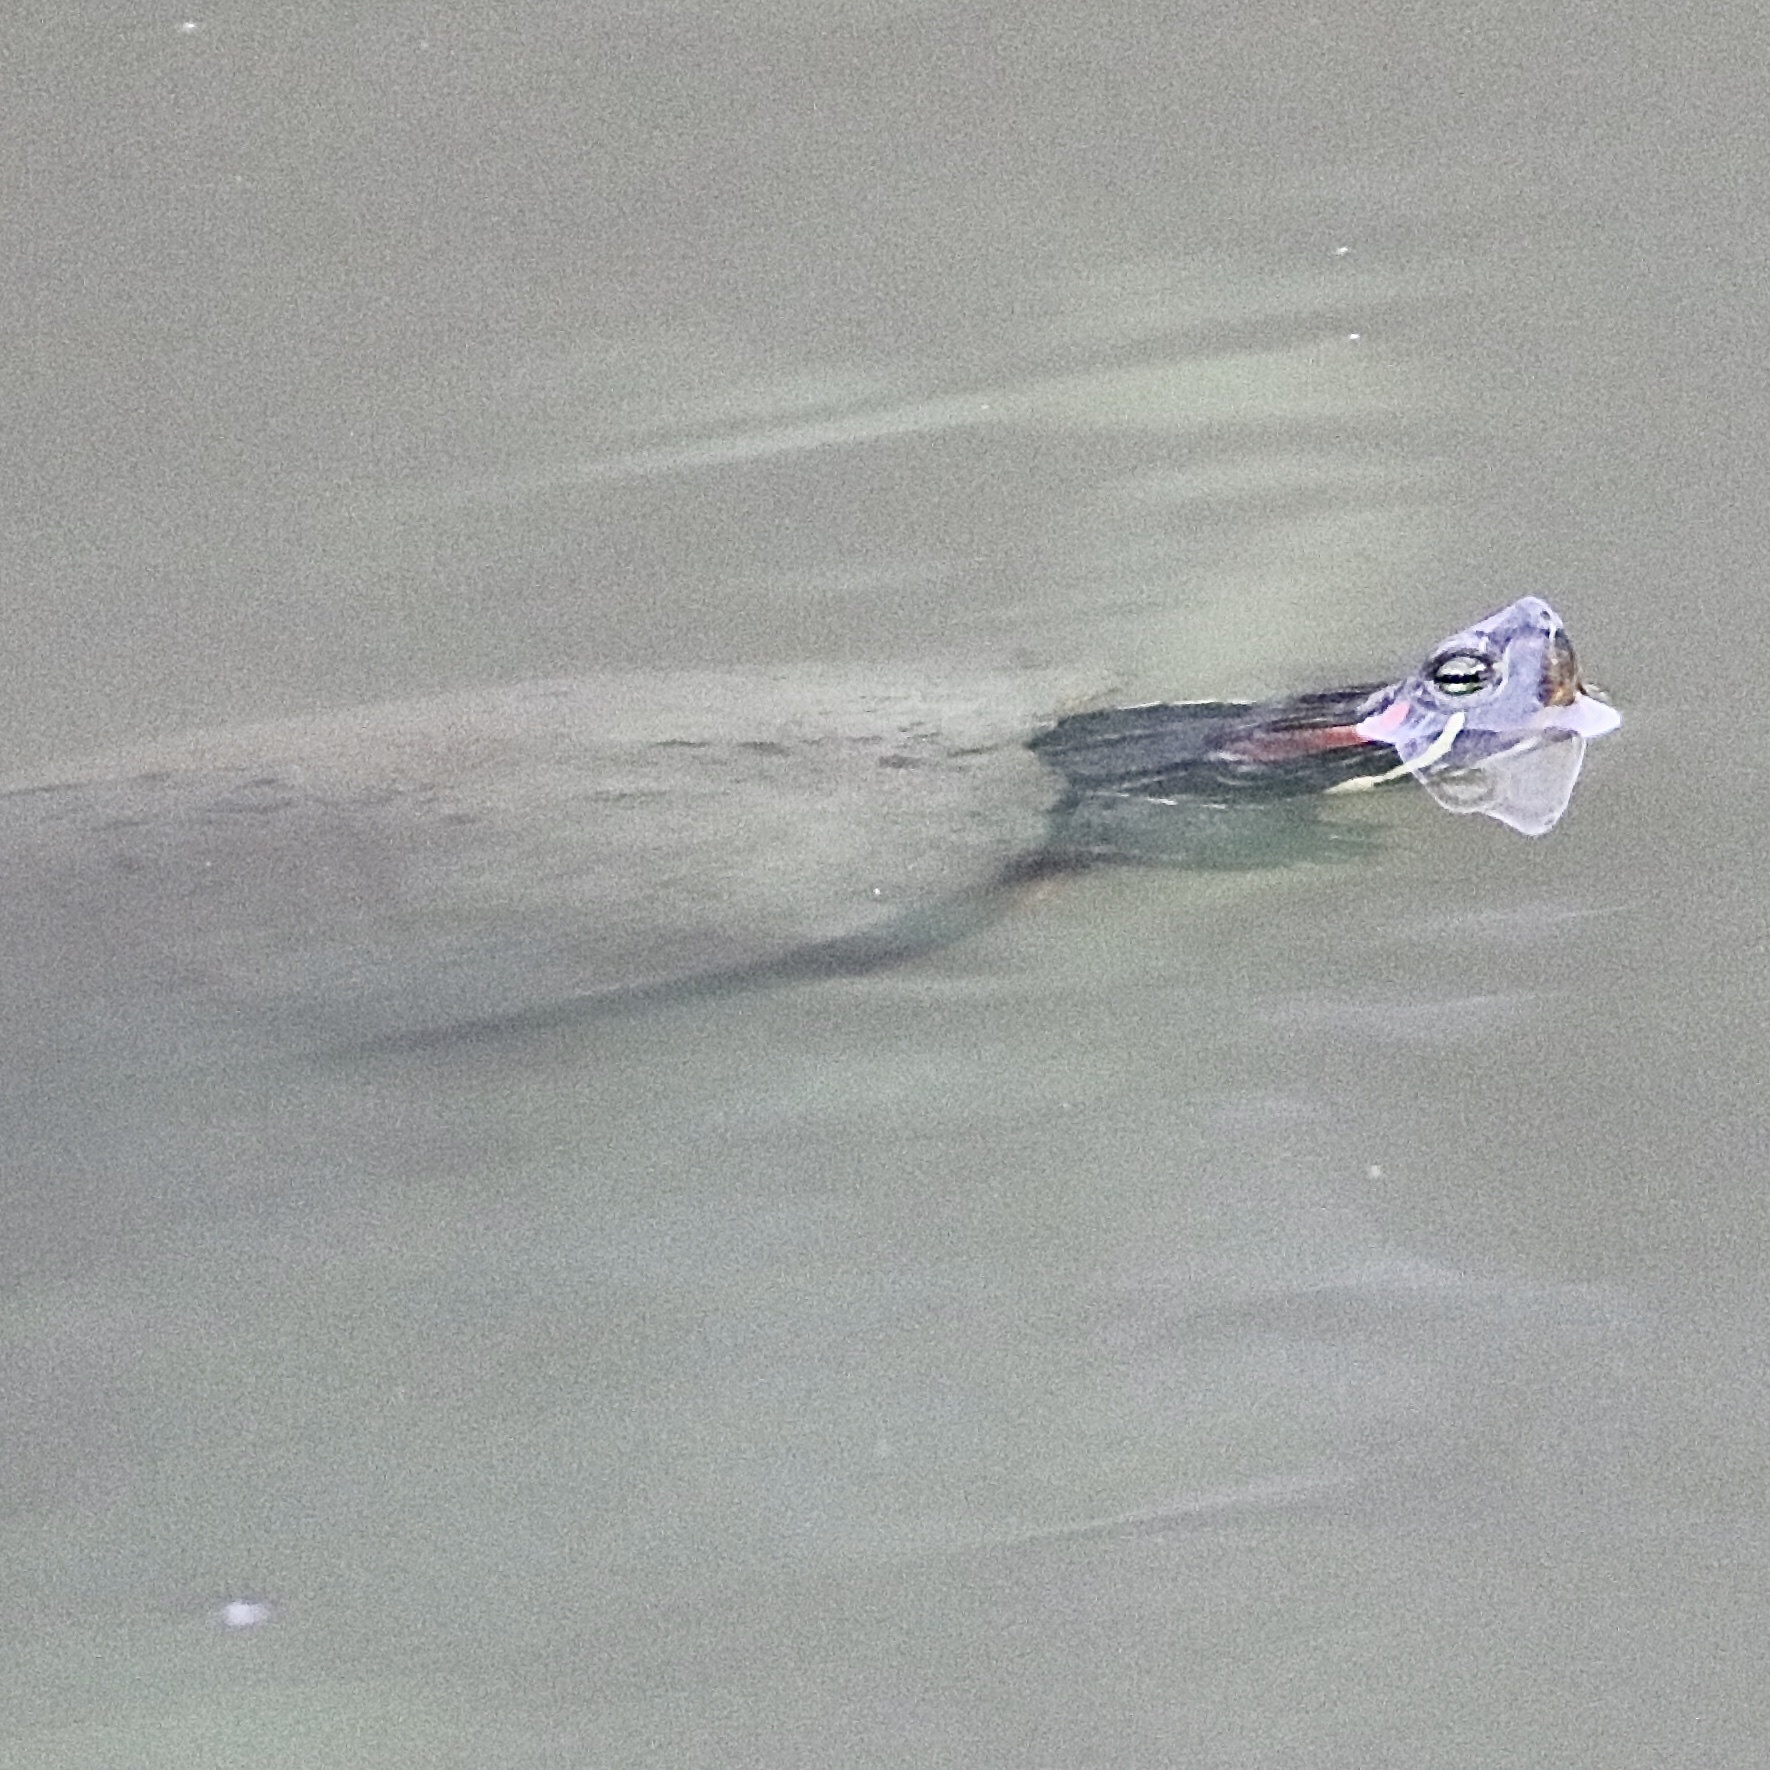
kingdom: Animalia
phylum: Chordata
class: Testudines
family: Emydidae
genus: Trachemys
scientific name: Trachemys scripta
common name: Slider
